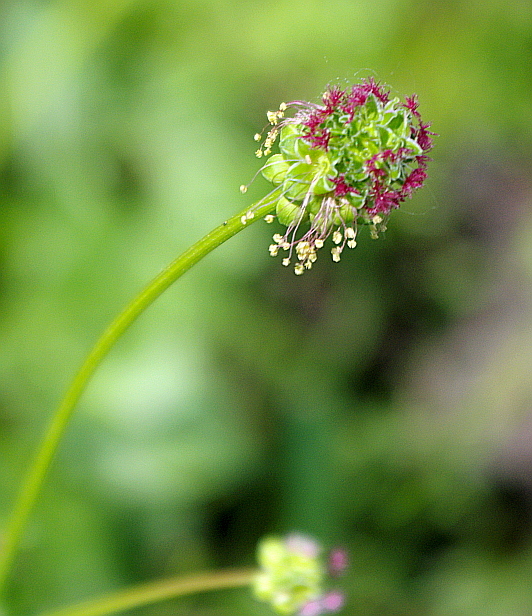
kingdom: Plantae
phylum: Tracheophyta
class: Magnoliopsida
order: Rosales
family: Rosaceae
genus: Poterium
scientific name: Poterium sanguisorba
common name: Salad burnet
